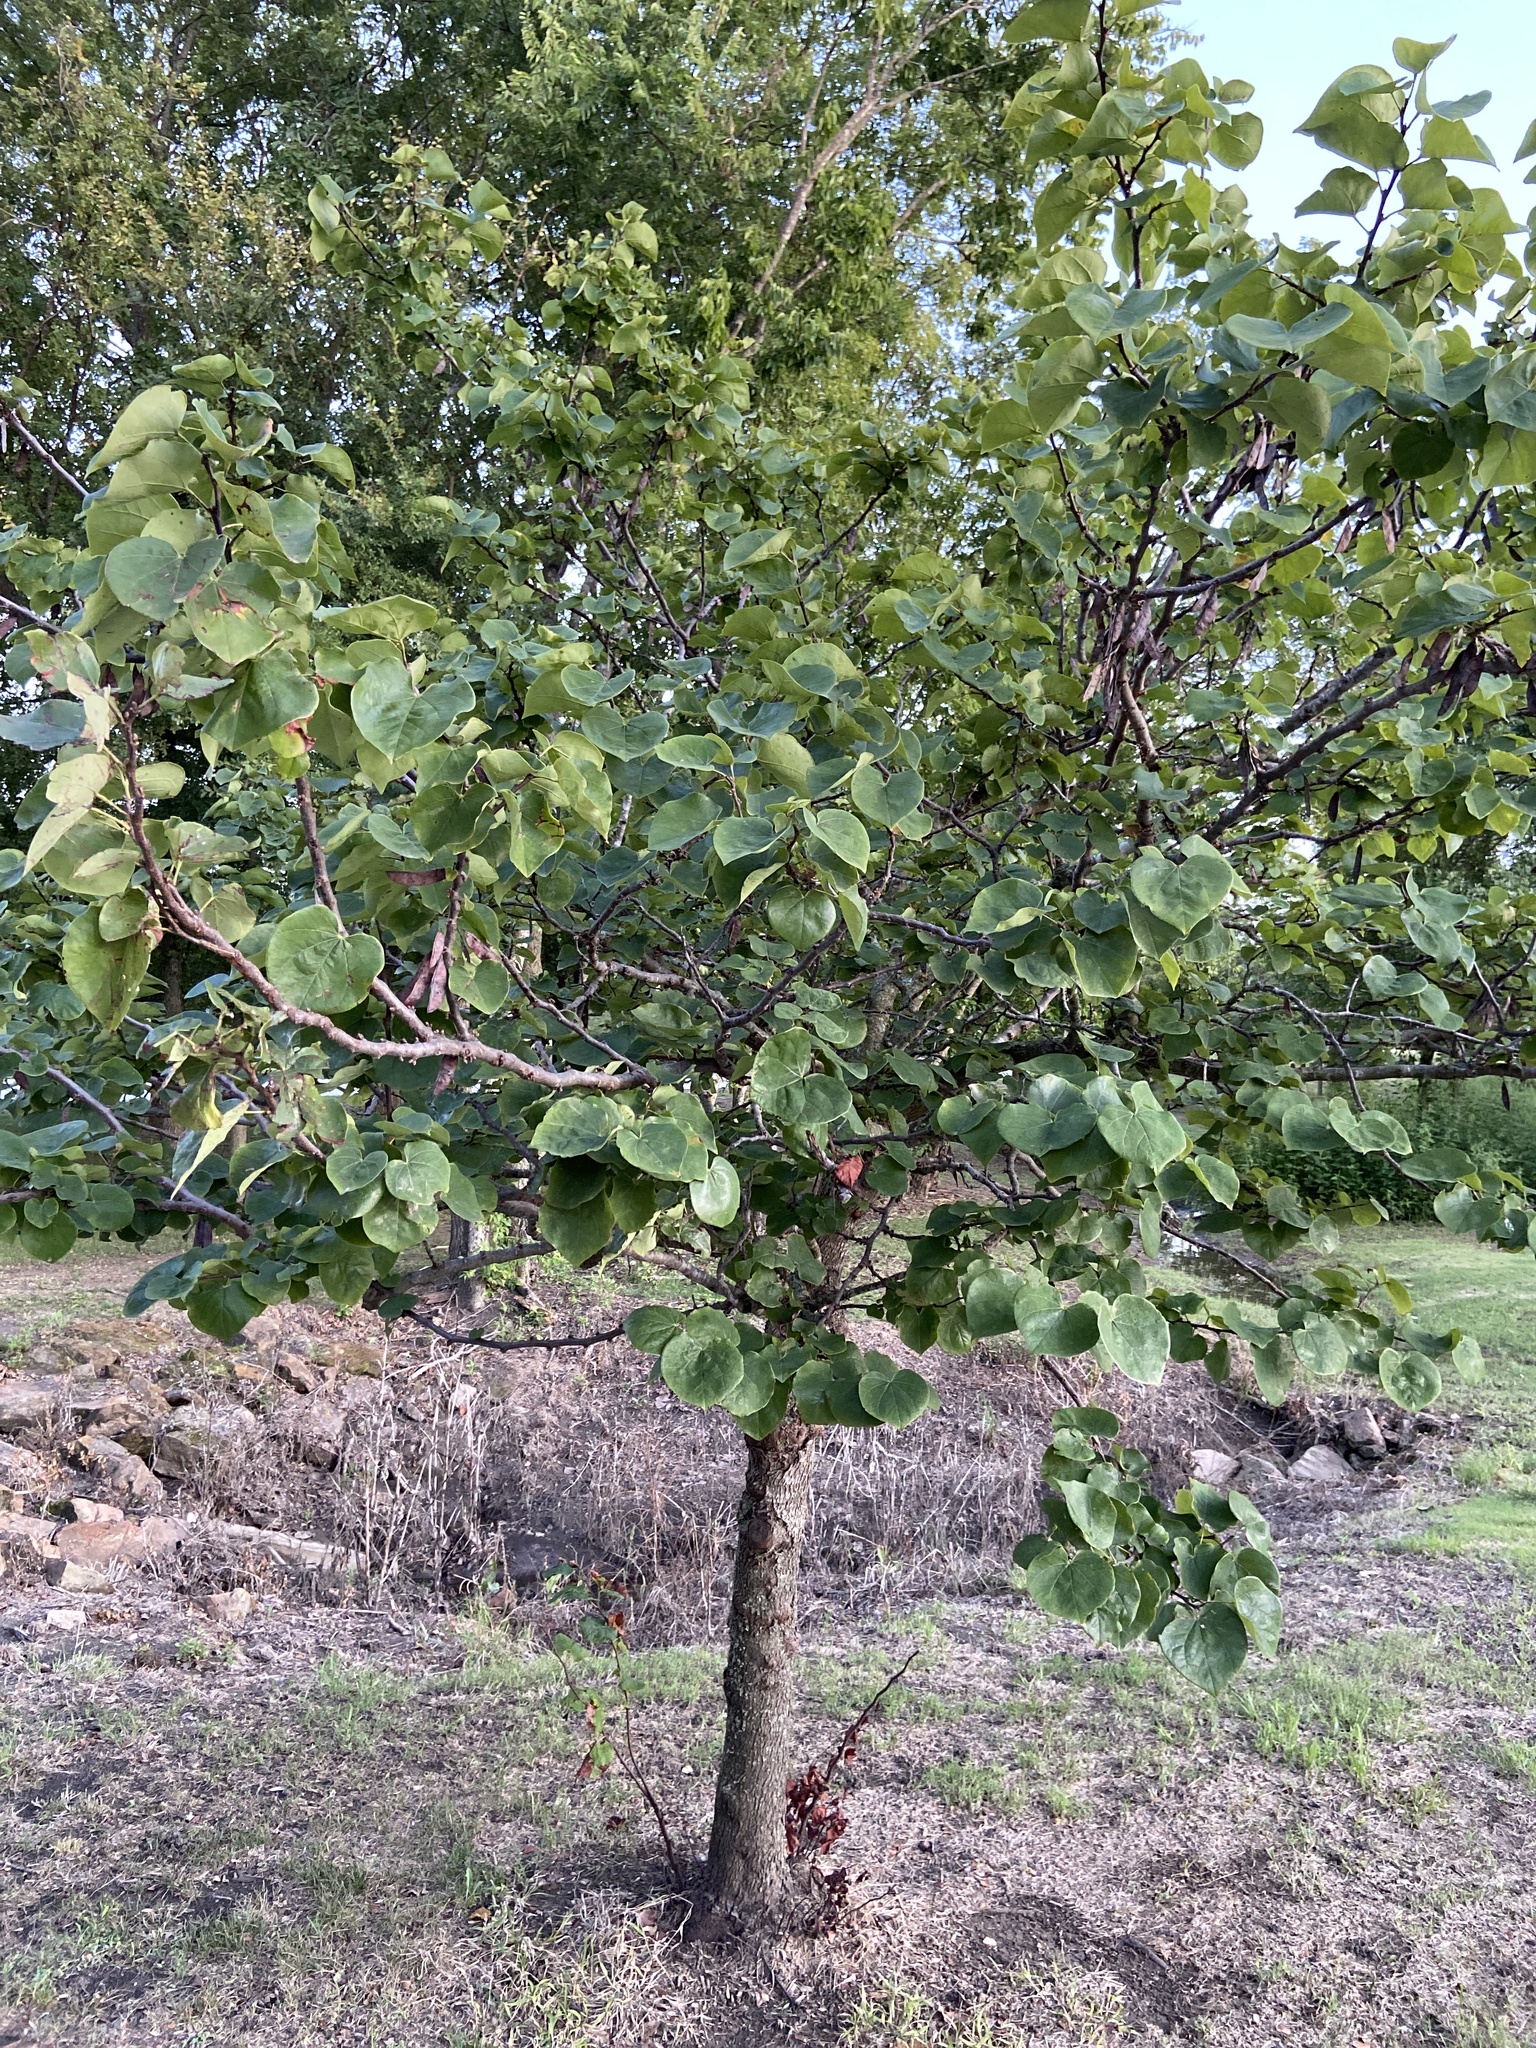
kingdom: Plantae
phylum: Tracheophyta
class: Magnoliopsida
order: Fabales
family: Fabaceae
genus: Cercis
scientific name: Cercis canadensis
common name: Eastern redbud
